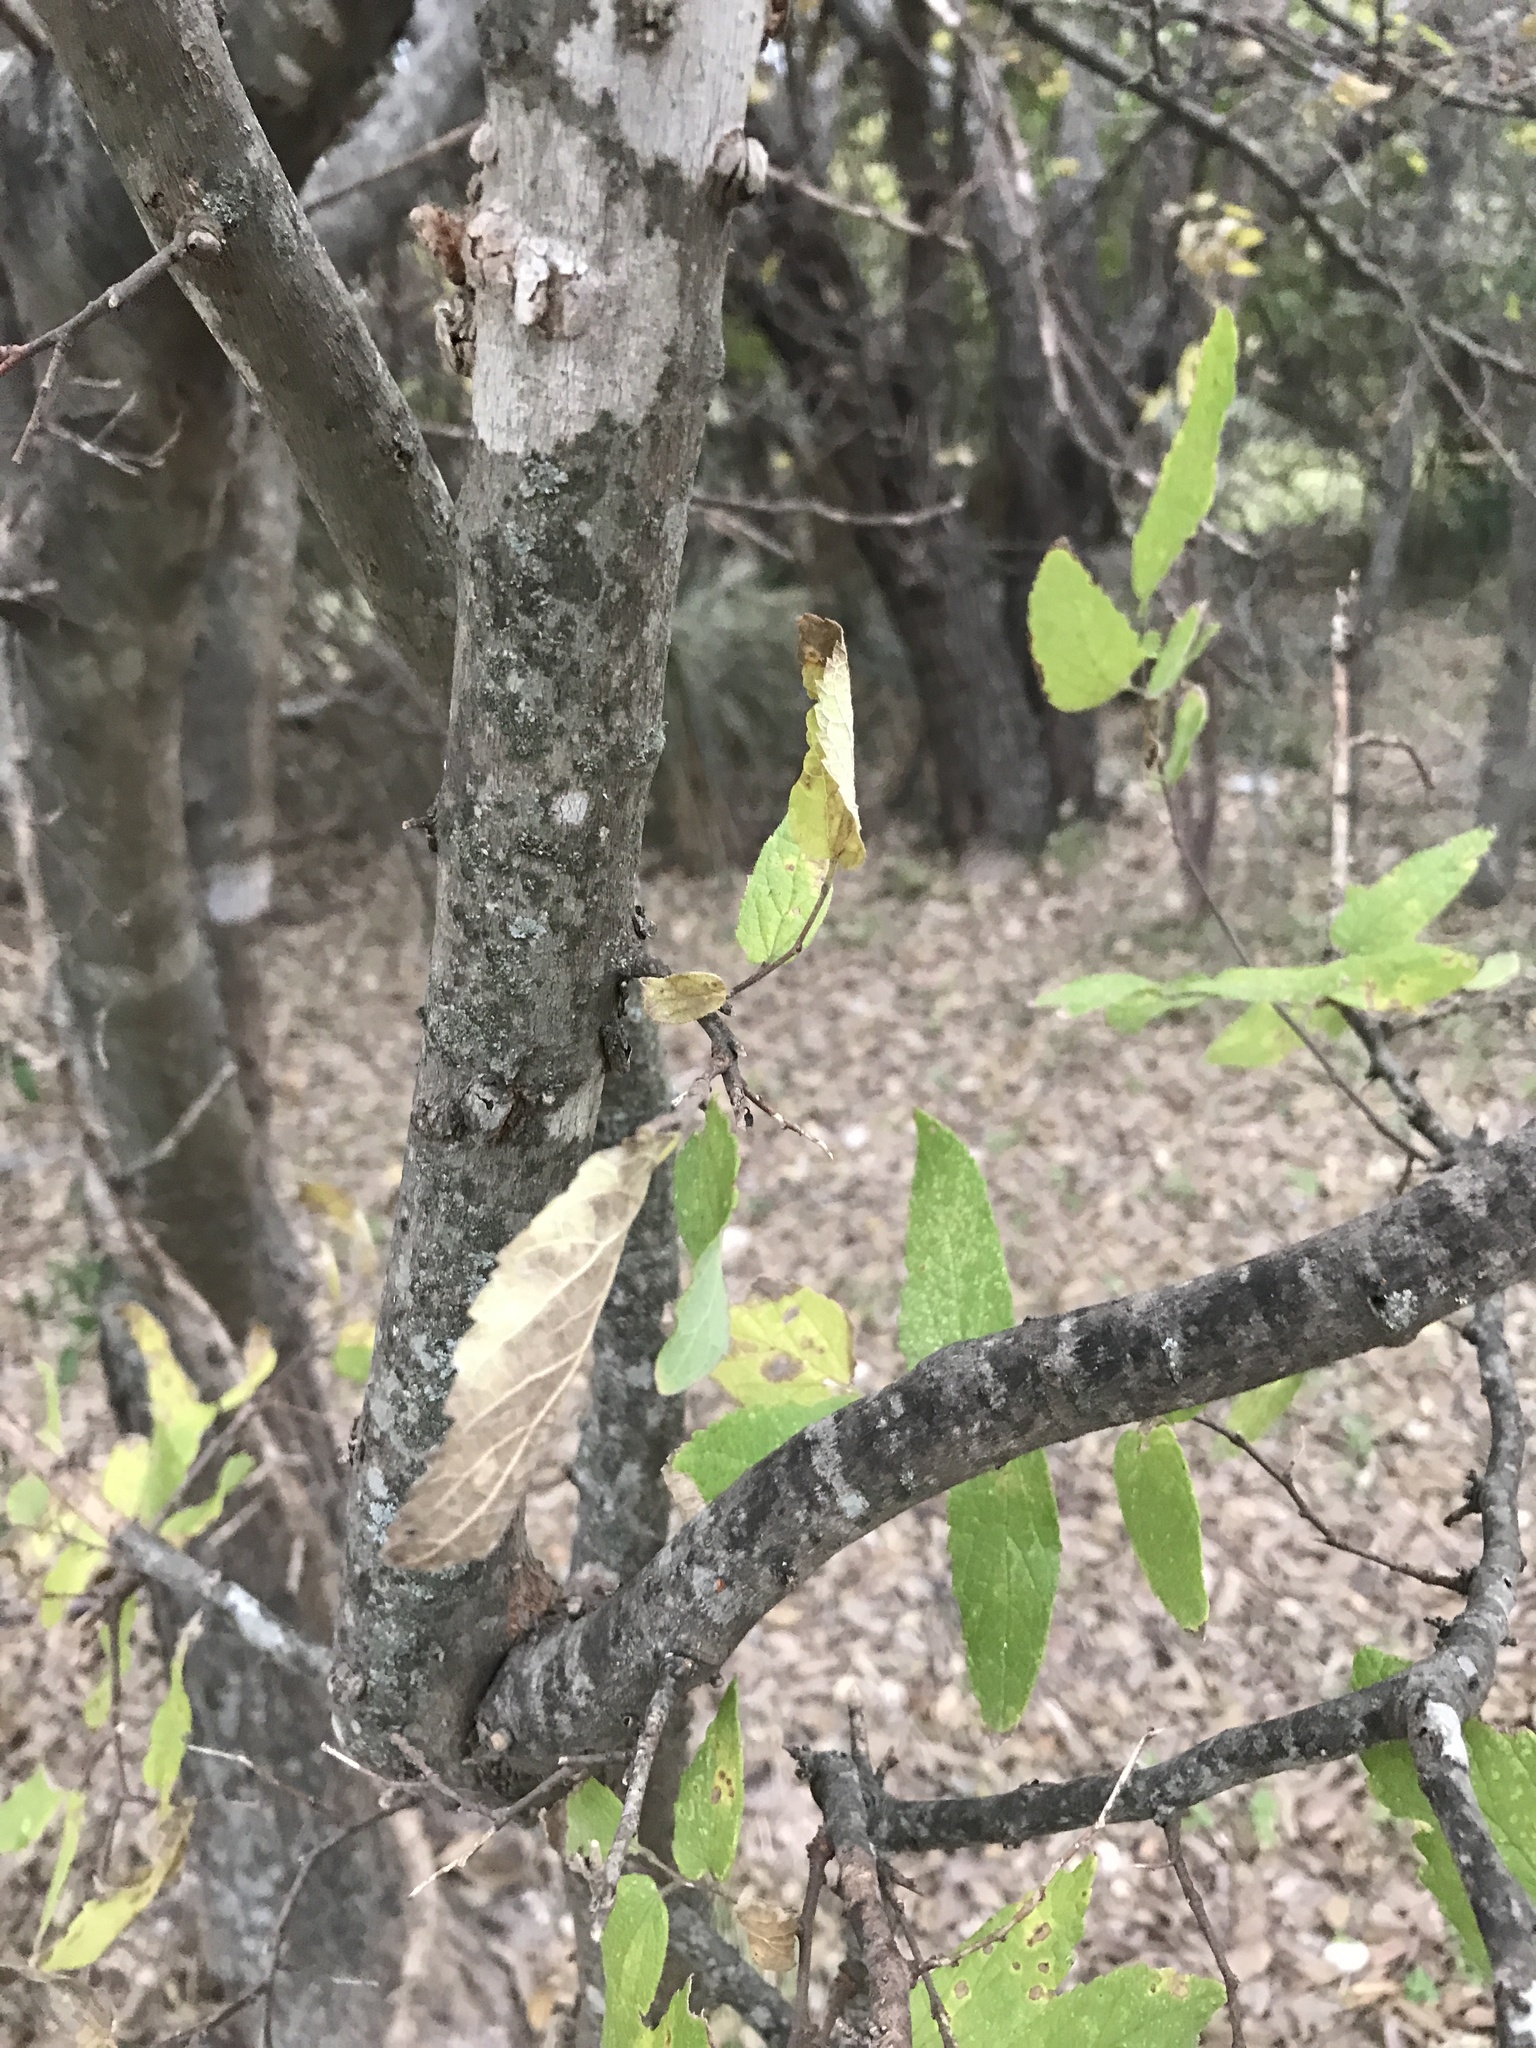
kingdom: Plantae
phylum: Tracheophyta
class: Magnoliopsida
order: Rosales
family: Cannabaceae
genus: Celtis
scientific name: Celtis reticulata
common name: Netleaf hackberry
